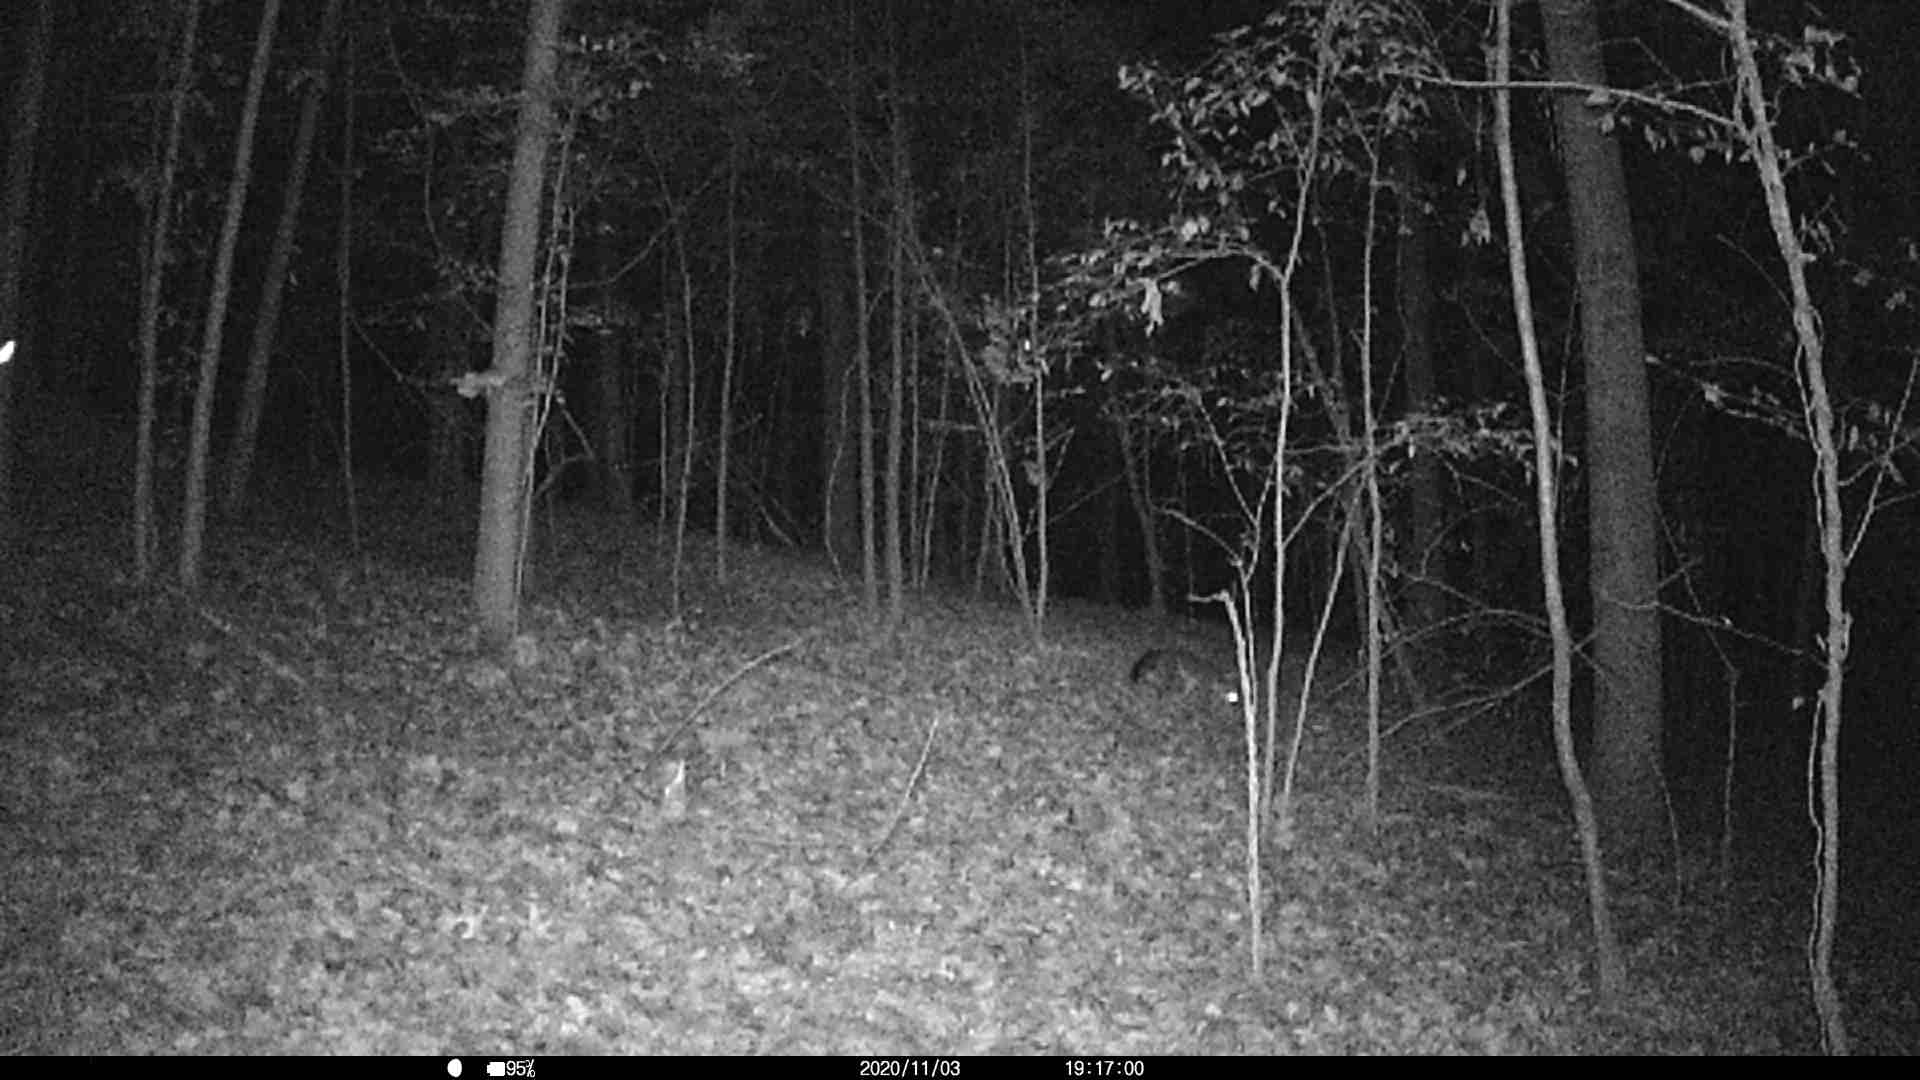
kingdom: Animalia
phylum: Chordata
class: Mammalia
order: Carnivora
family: Canidae
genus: Urocyon
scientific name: Urocyon cinereoargenteus
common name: Gray fox
